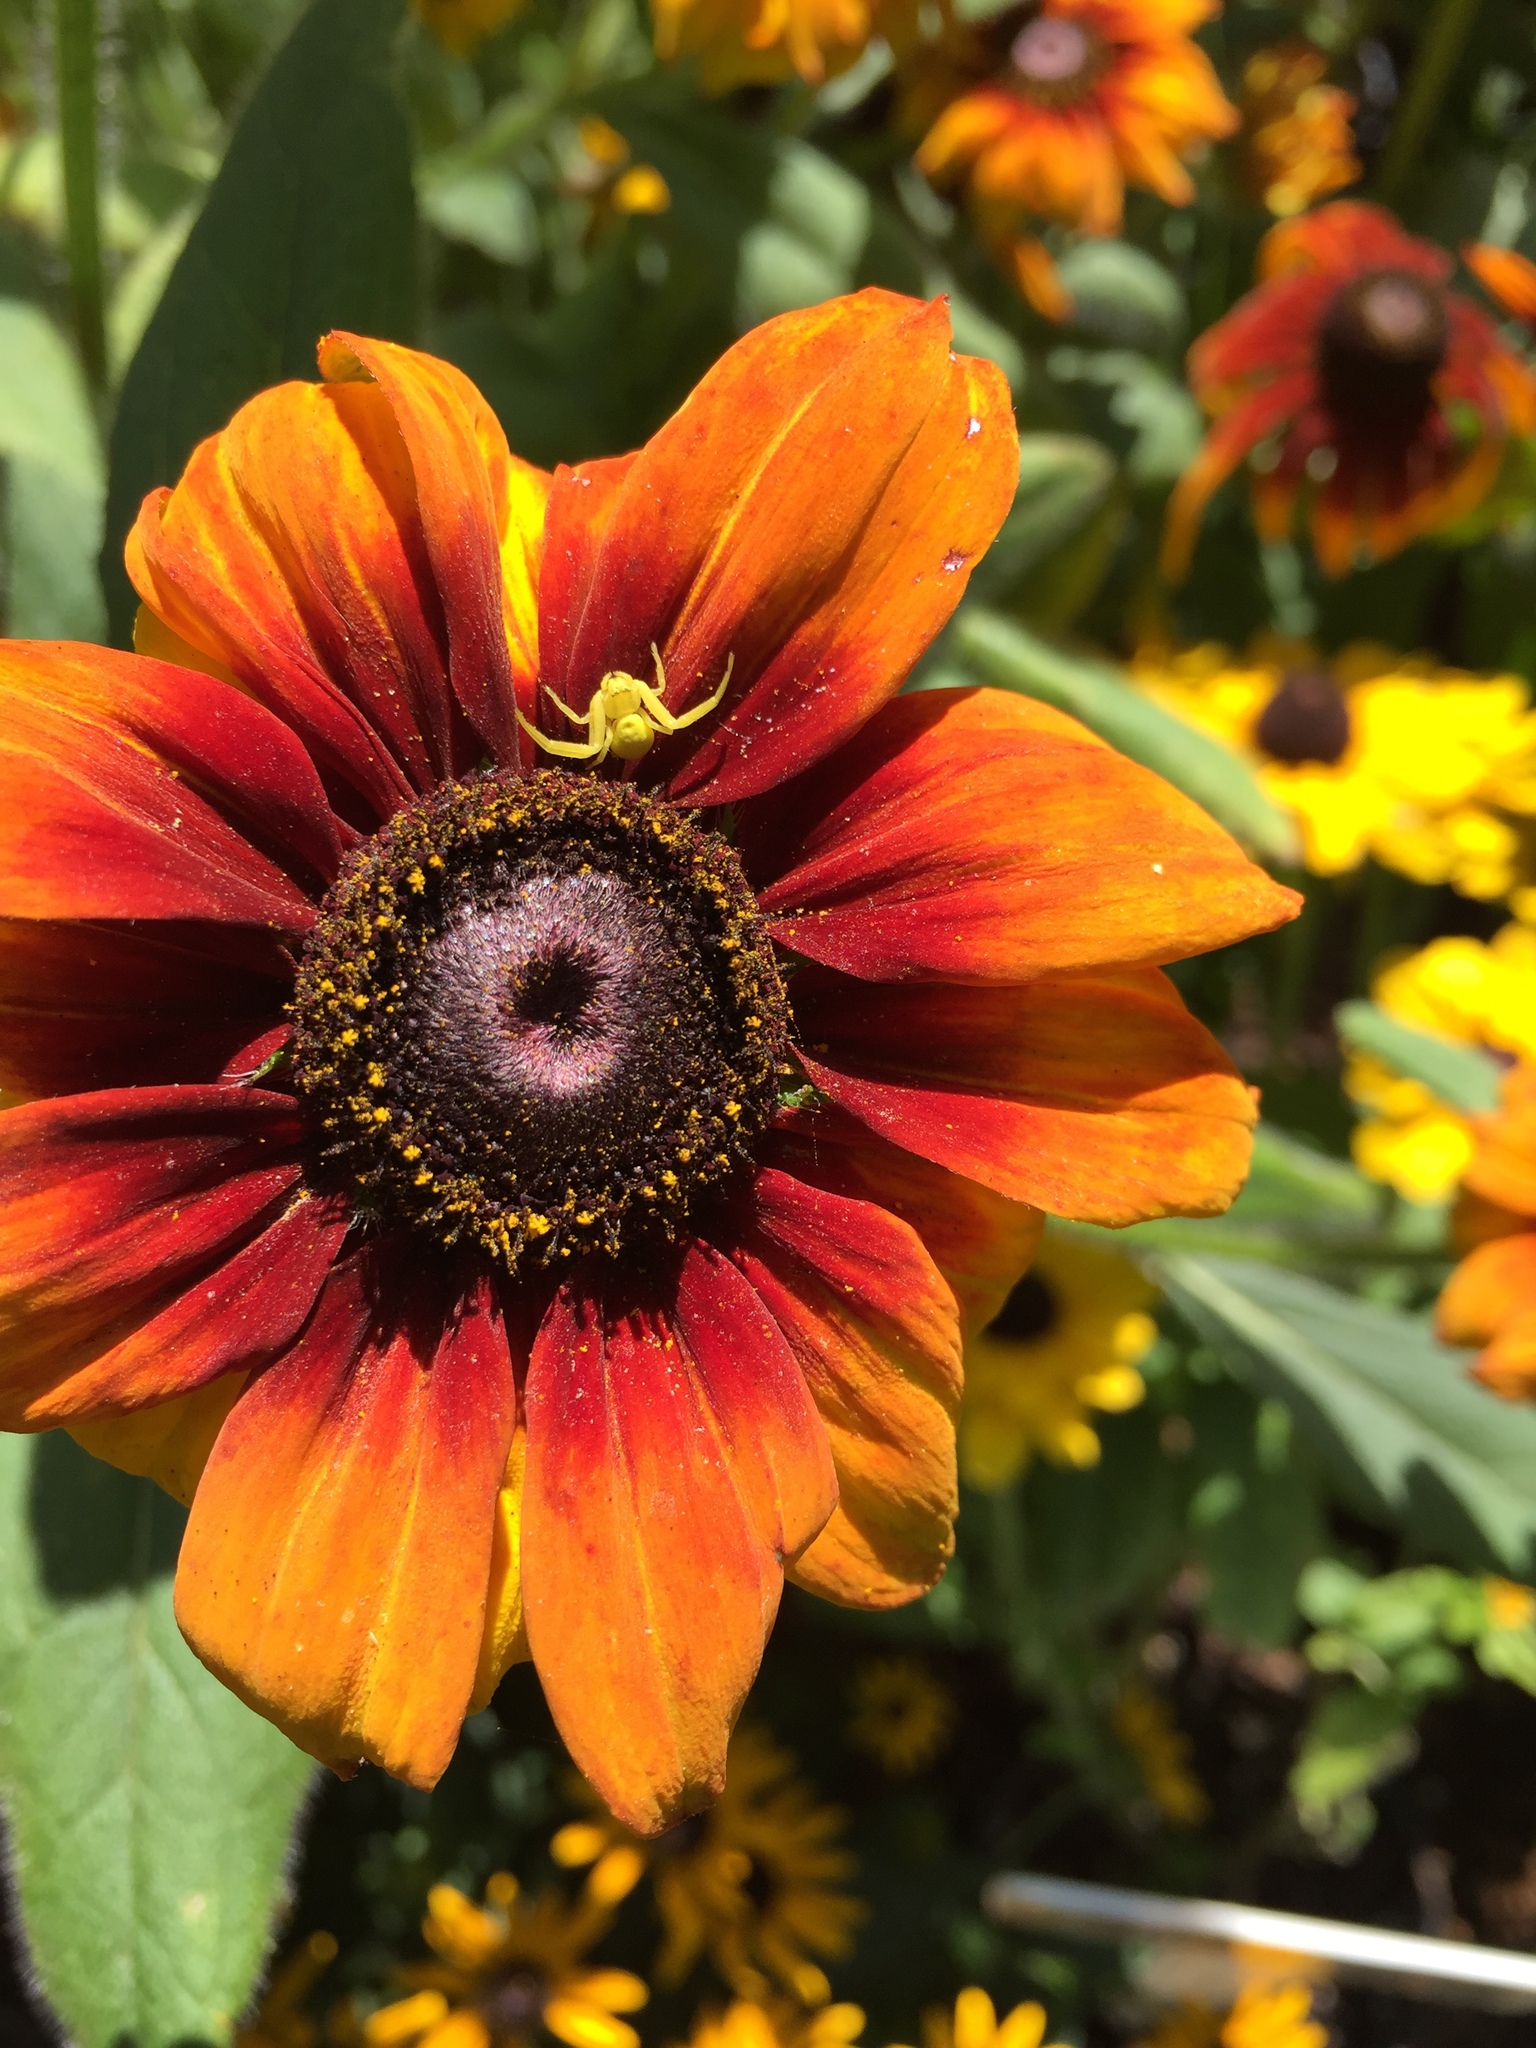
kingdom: Animalia
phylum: Arthropoda
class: Arachnida
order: Araneae
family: Thomisidae
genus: Misumena
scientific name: Misumena vatia
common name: Goldenrod crab spider
